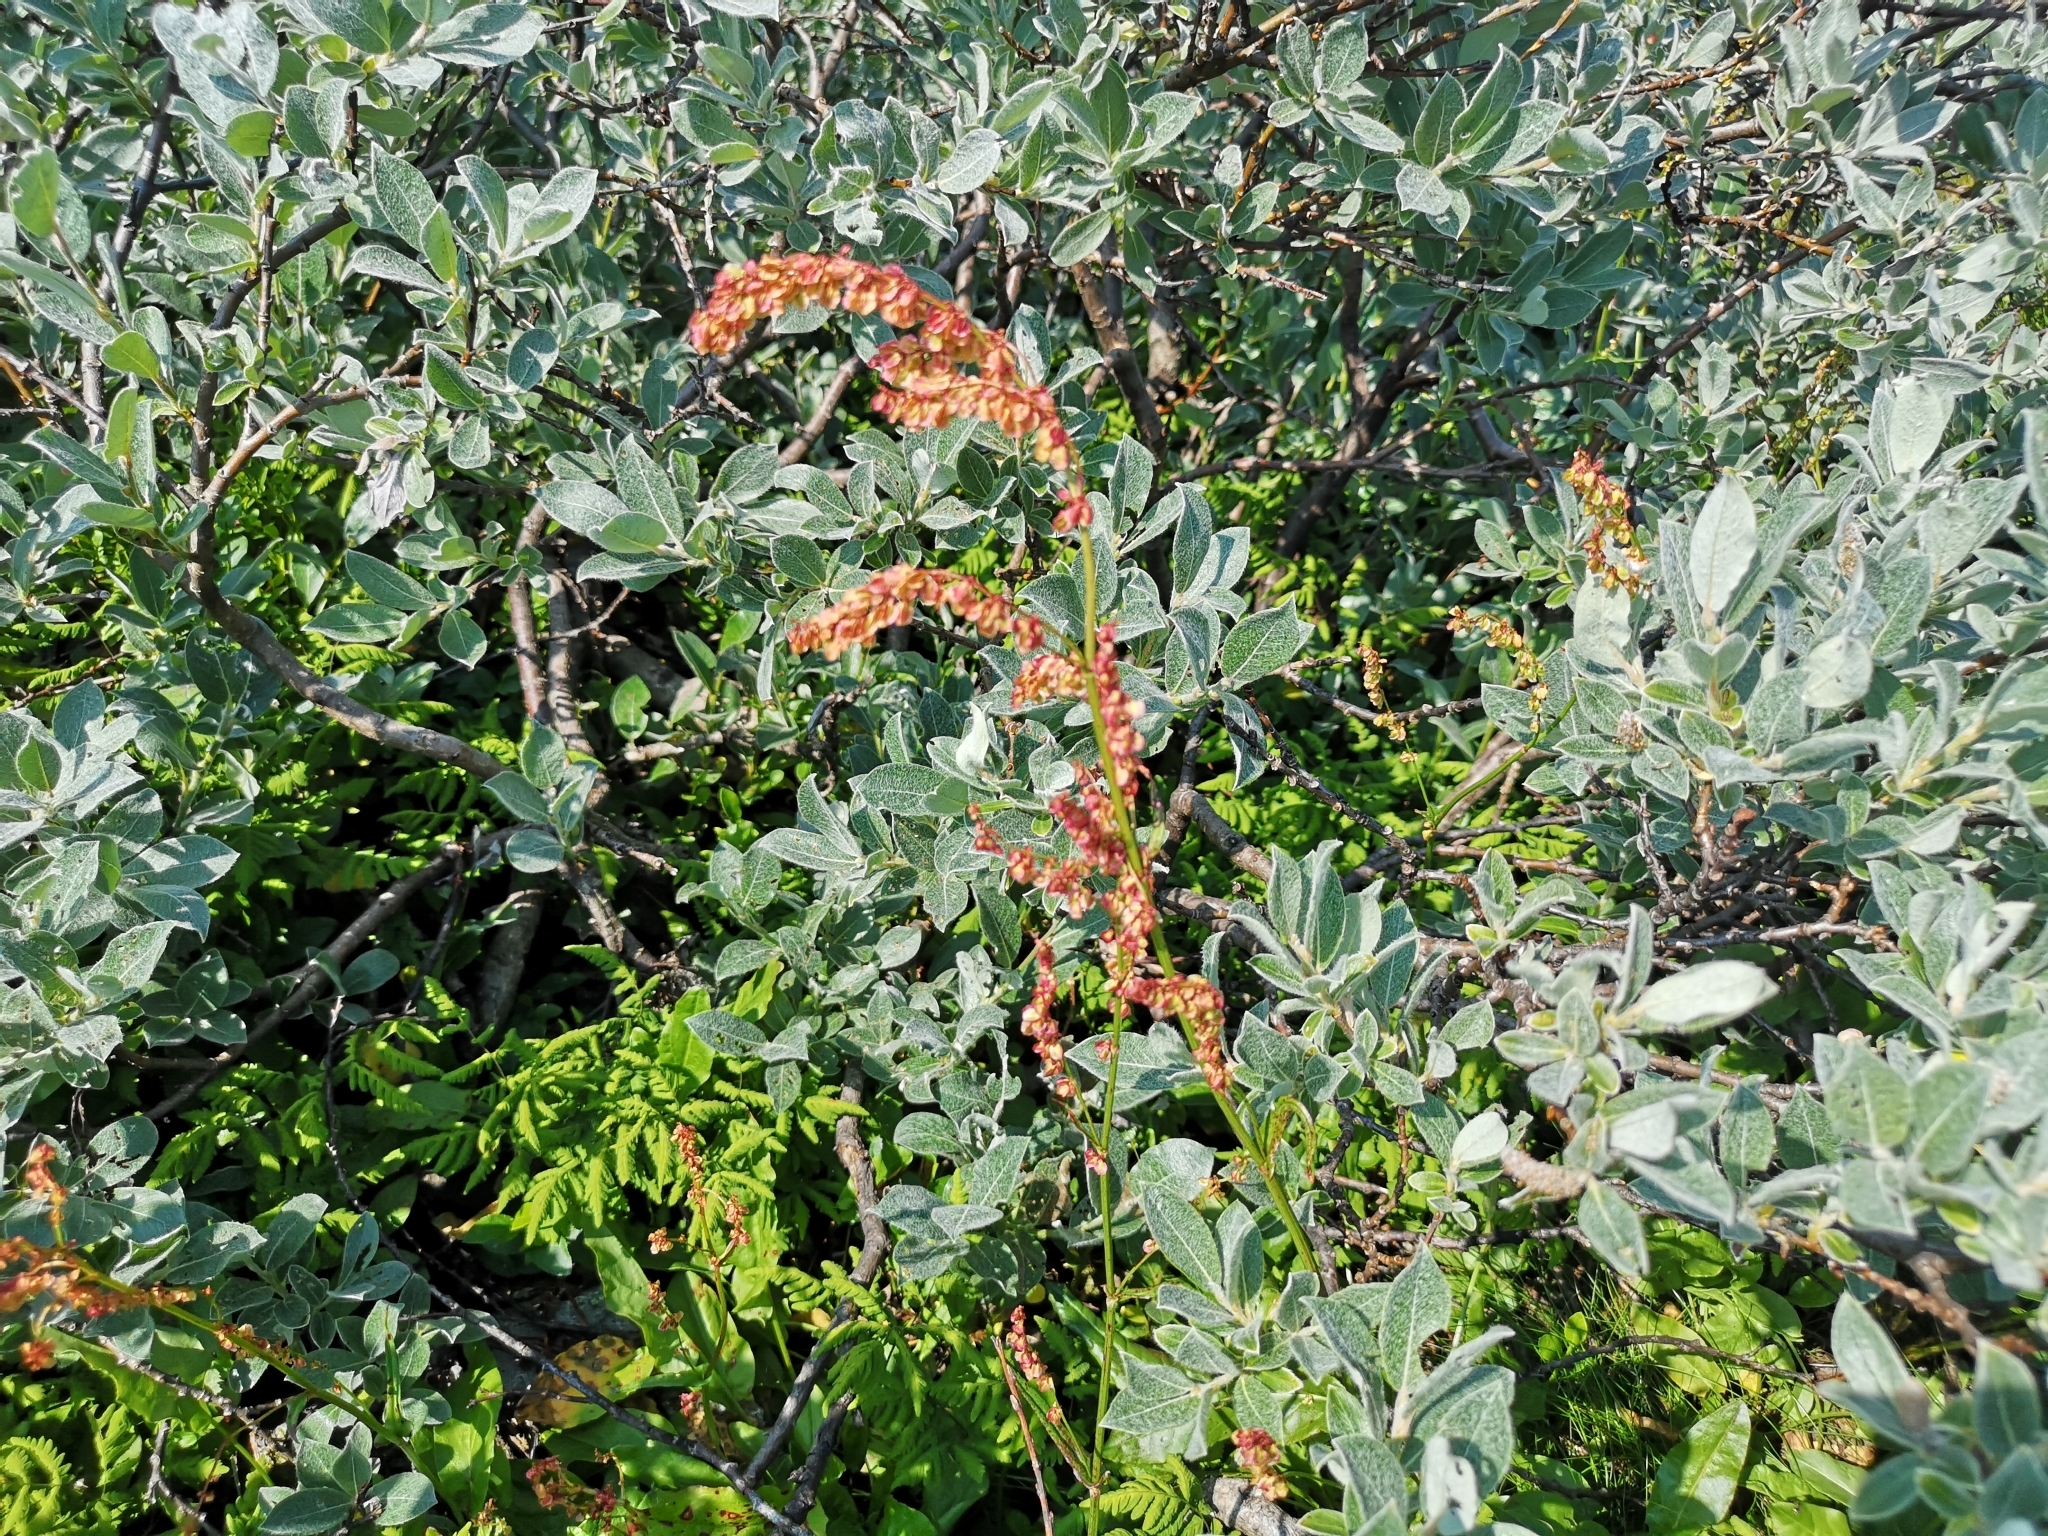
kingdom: Plantae
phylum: Tracheophyta
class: Magnoliopsida
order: Caryophyllales
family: Polygonaceae
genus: Rumex
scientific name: Rumex acetosa
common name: Garden sorrel
